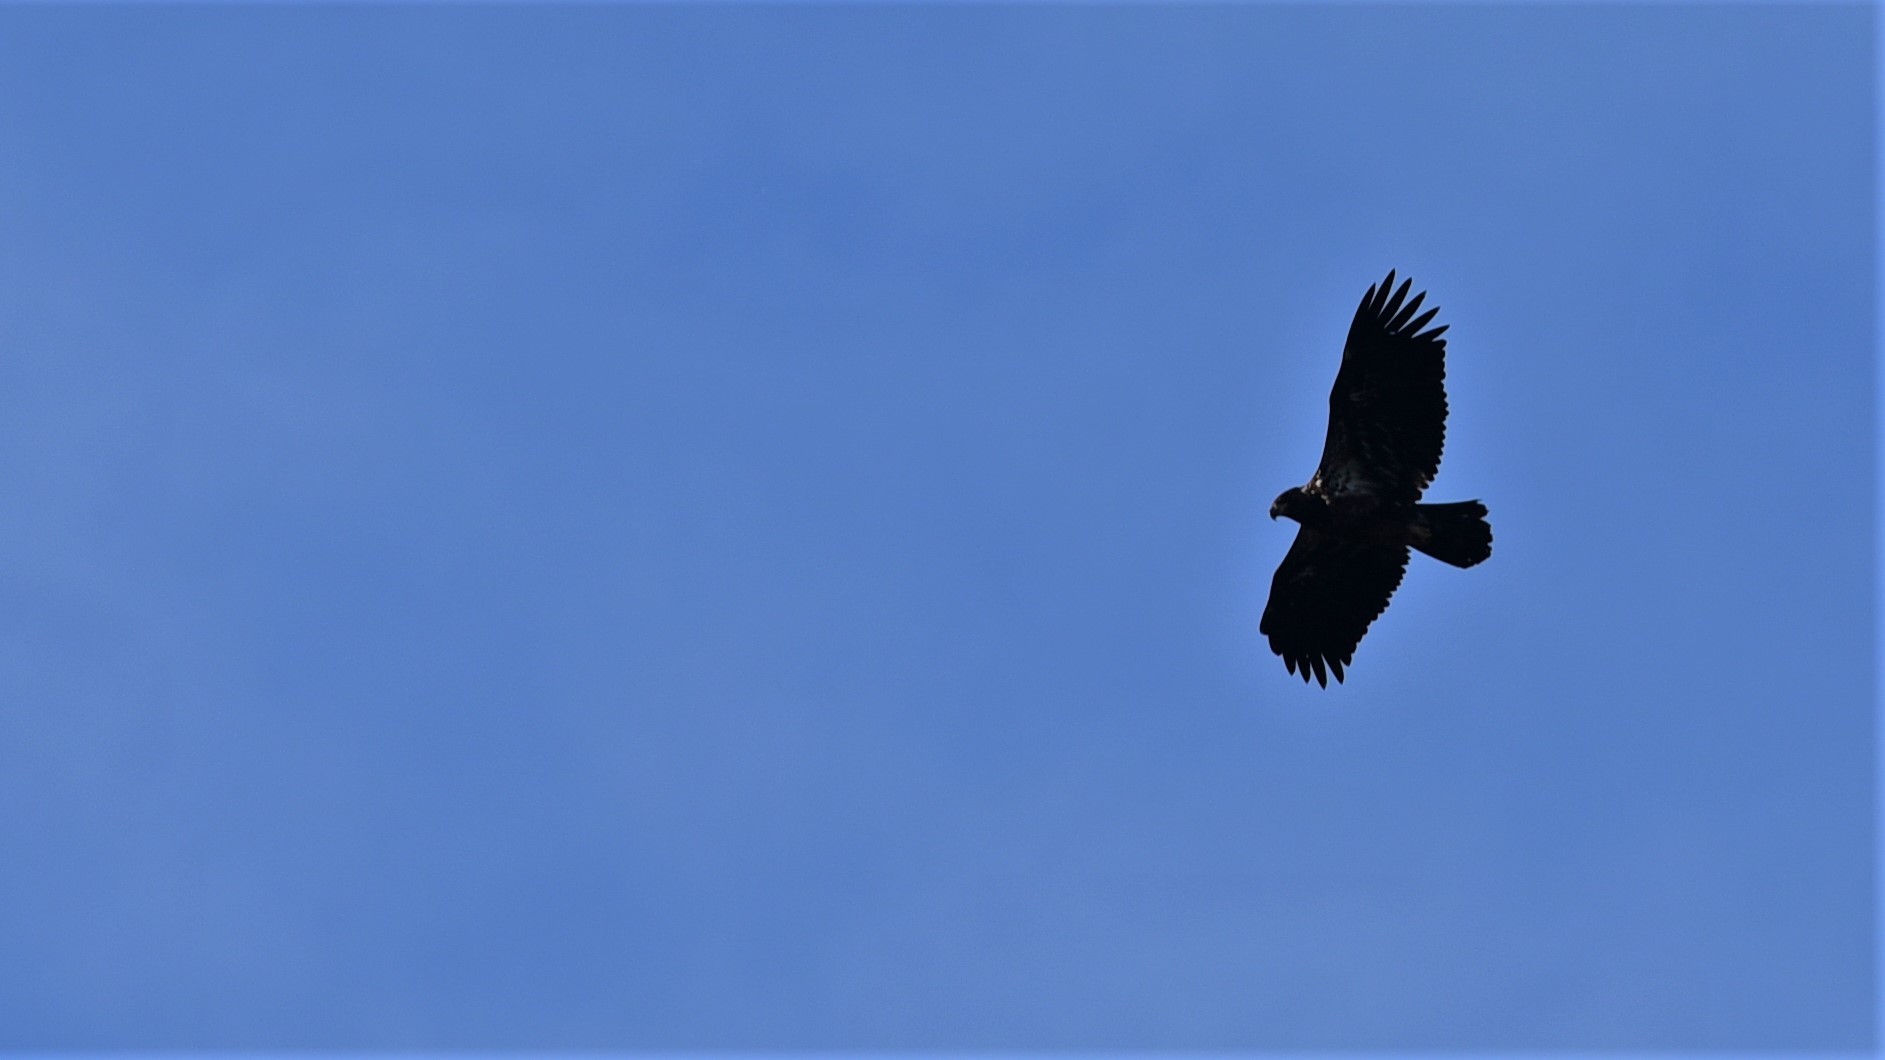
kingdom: Animalia
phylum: Chordata
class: Aves
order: Accipitriformes
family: Accipitridae
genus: Haliaeetus
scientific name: Haliaeetus leucocephalus
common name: Bald eagle
